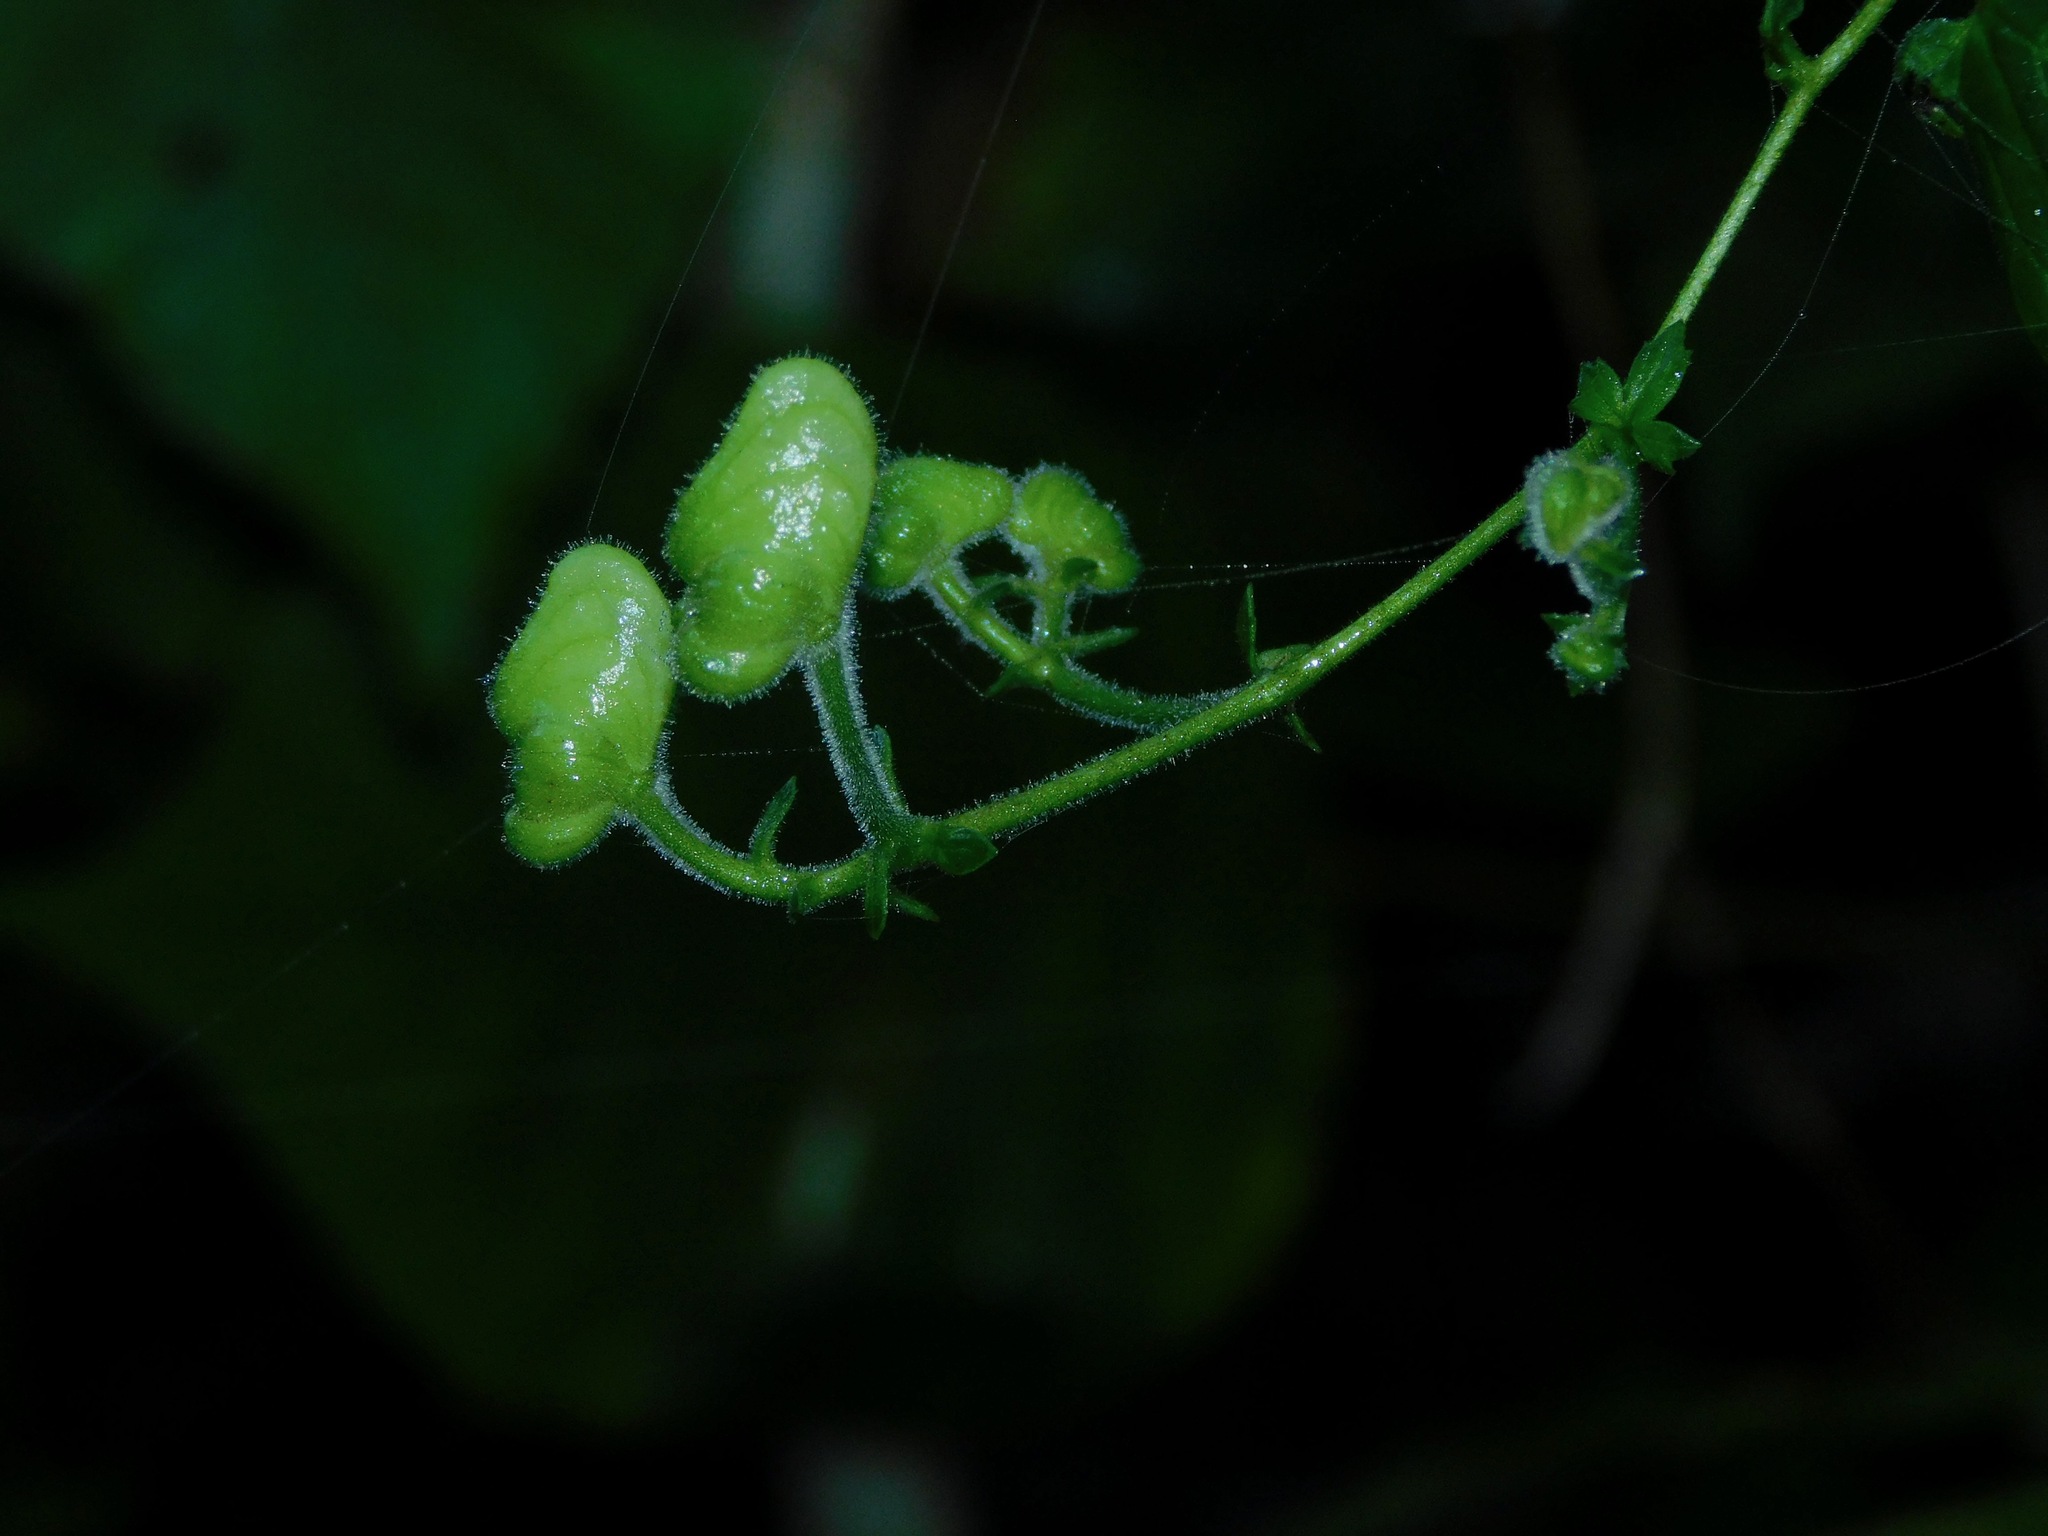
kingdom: Plantae
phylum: Tracheophyta
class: Magnoliopsida
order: Ranunculales
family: Ranunculaceae
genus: Aconitum
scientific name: Aconitum reclinatum
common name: Trailing wolfsbane
